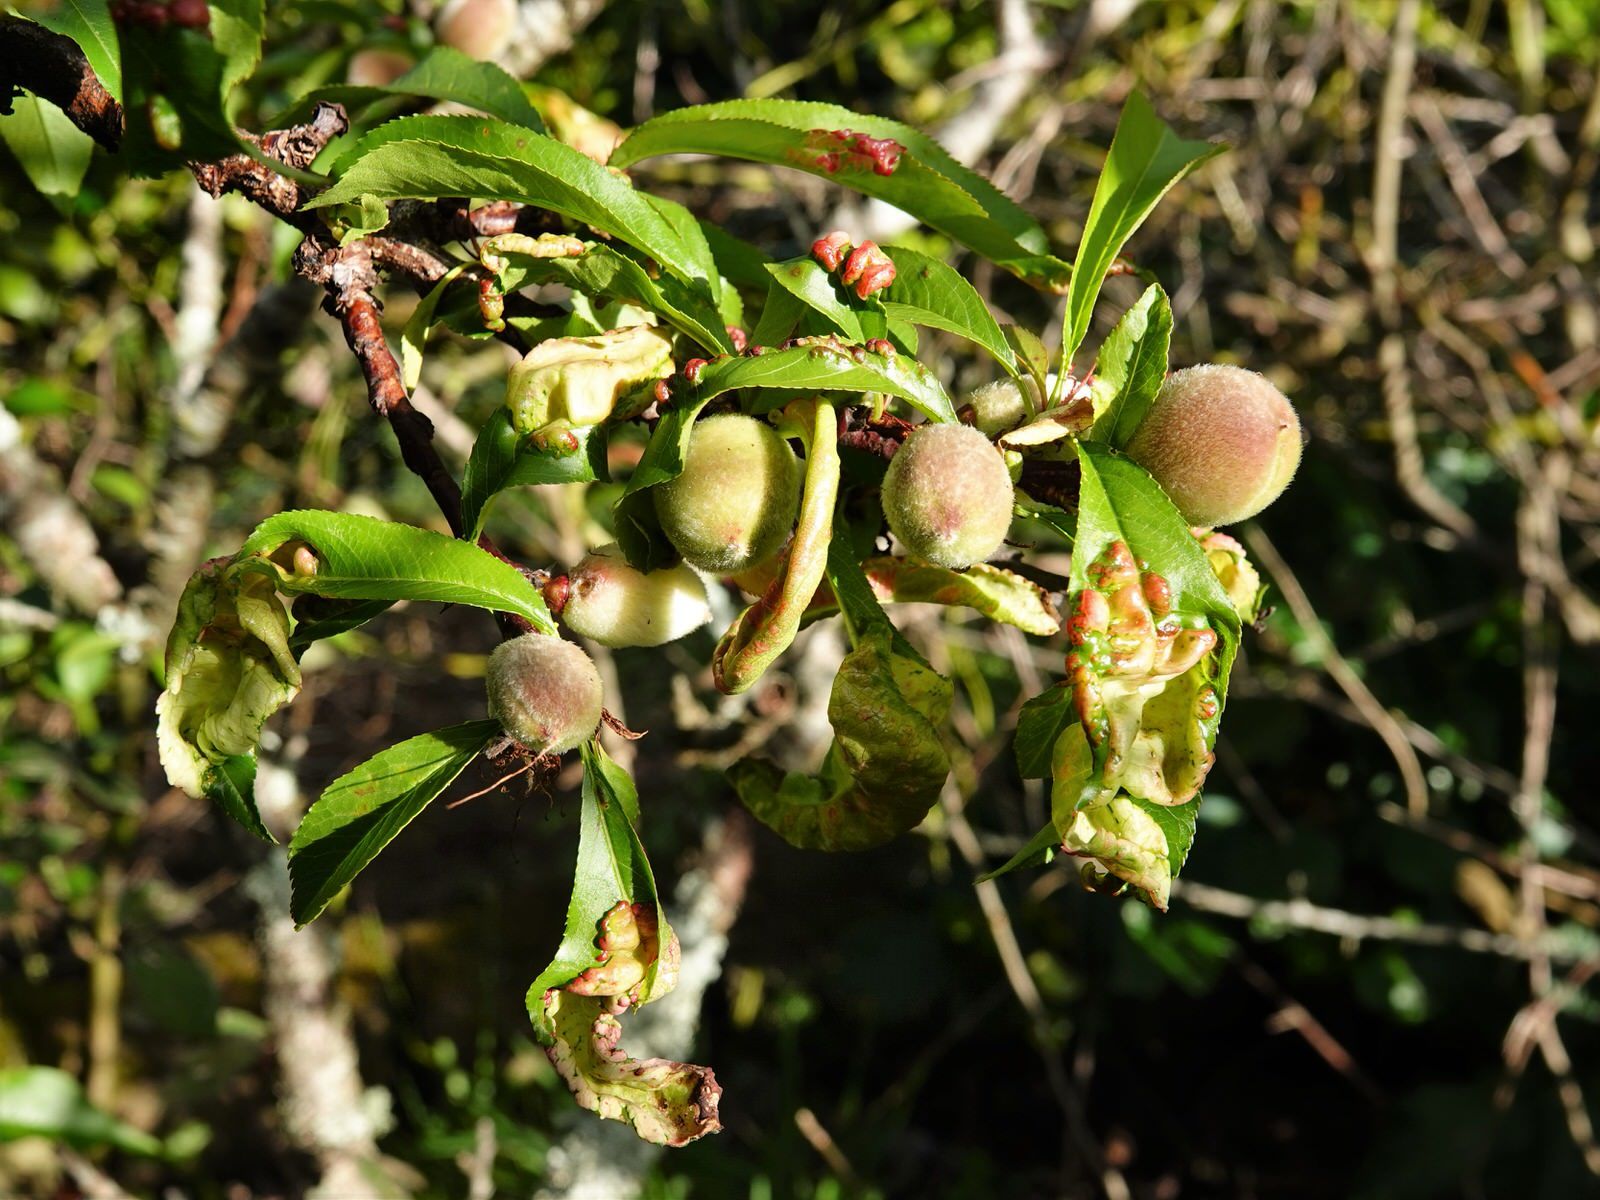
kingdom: Fungi
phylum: Ascomycota
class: Taphrinomycetes
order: Taphrinales
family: Taphrinaceae
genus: Taphrina
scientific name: Taphrina deformans
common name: Peach leaf curl
